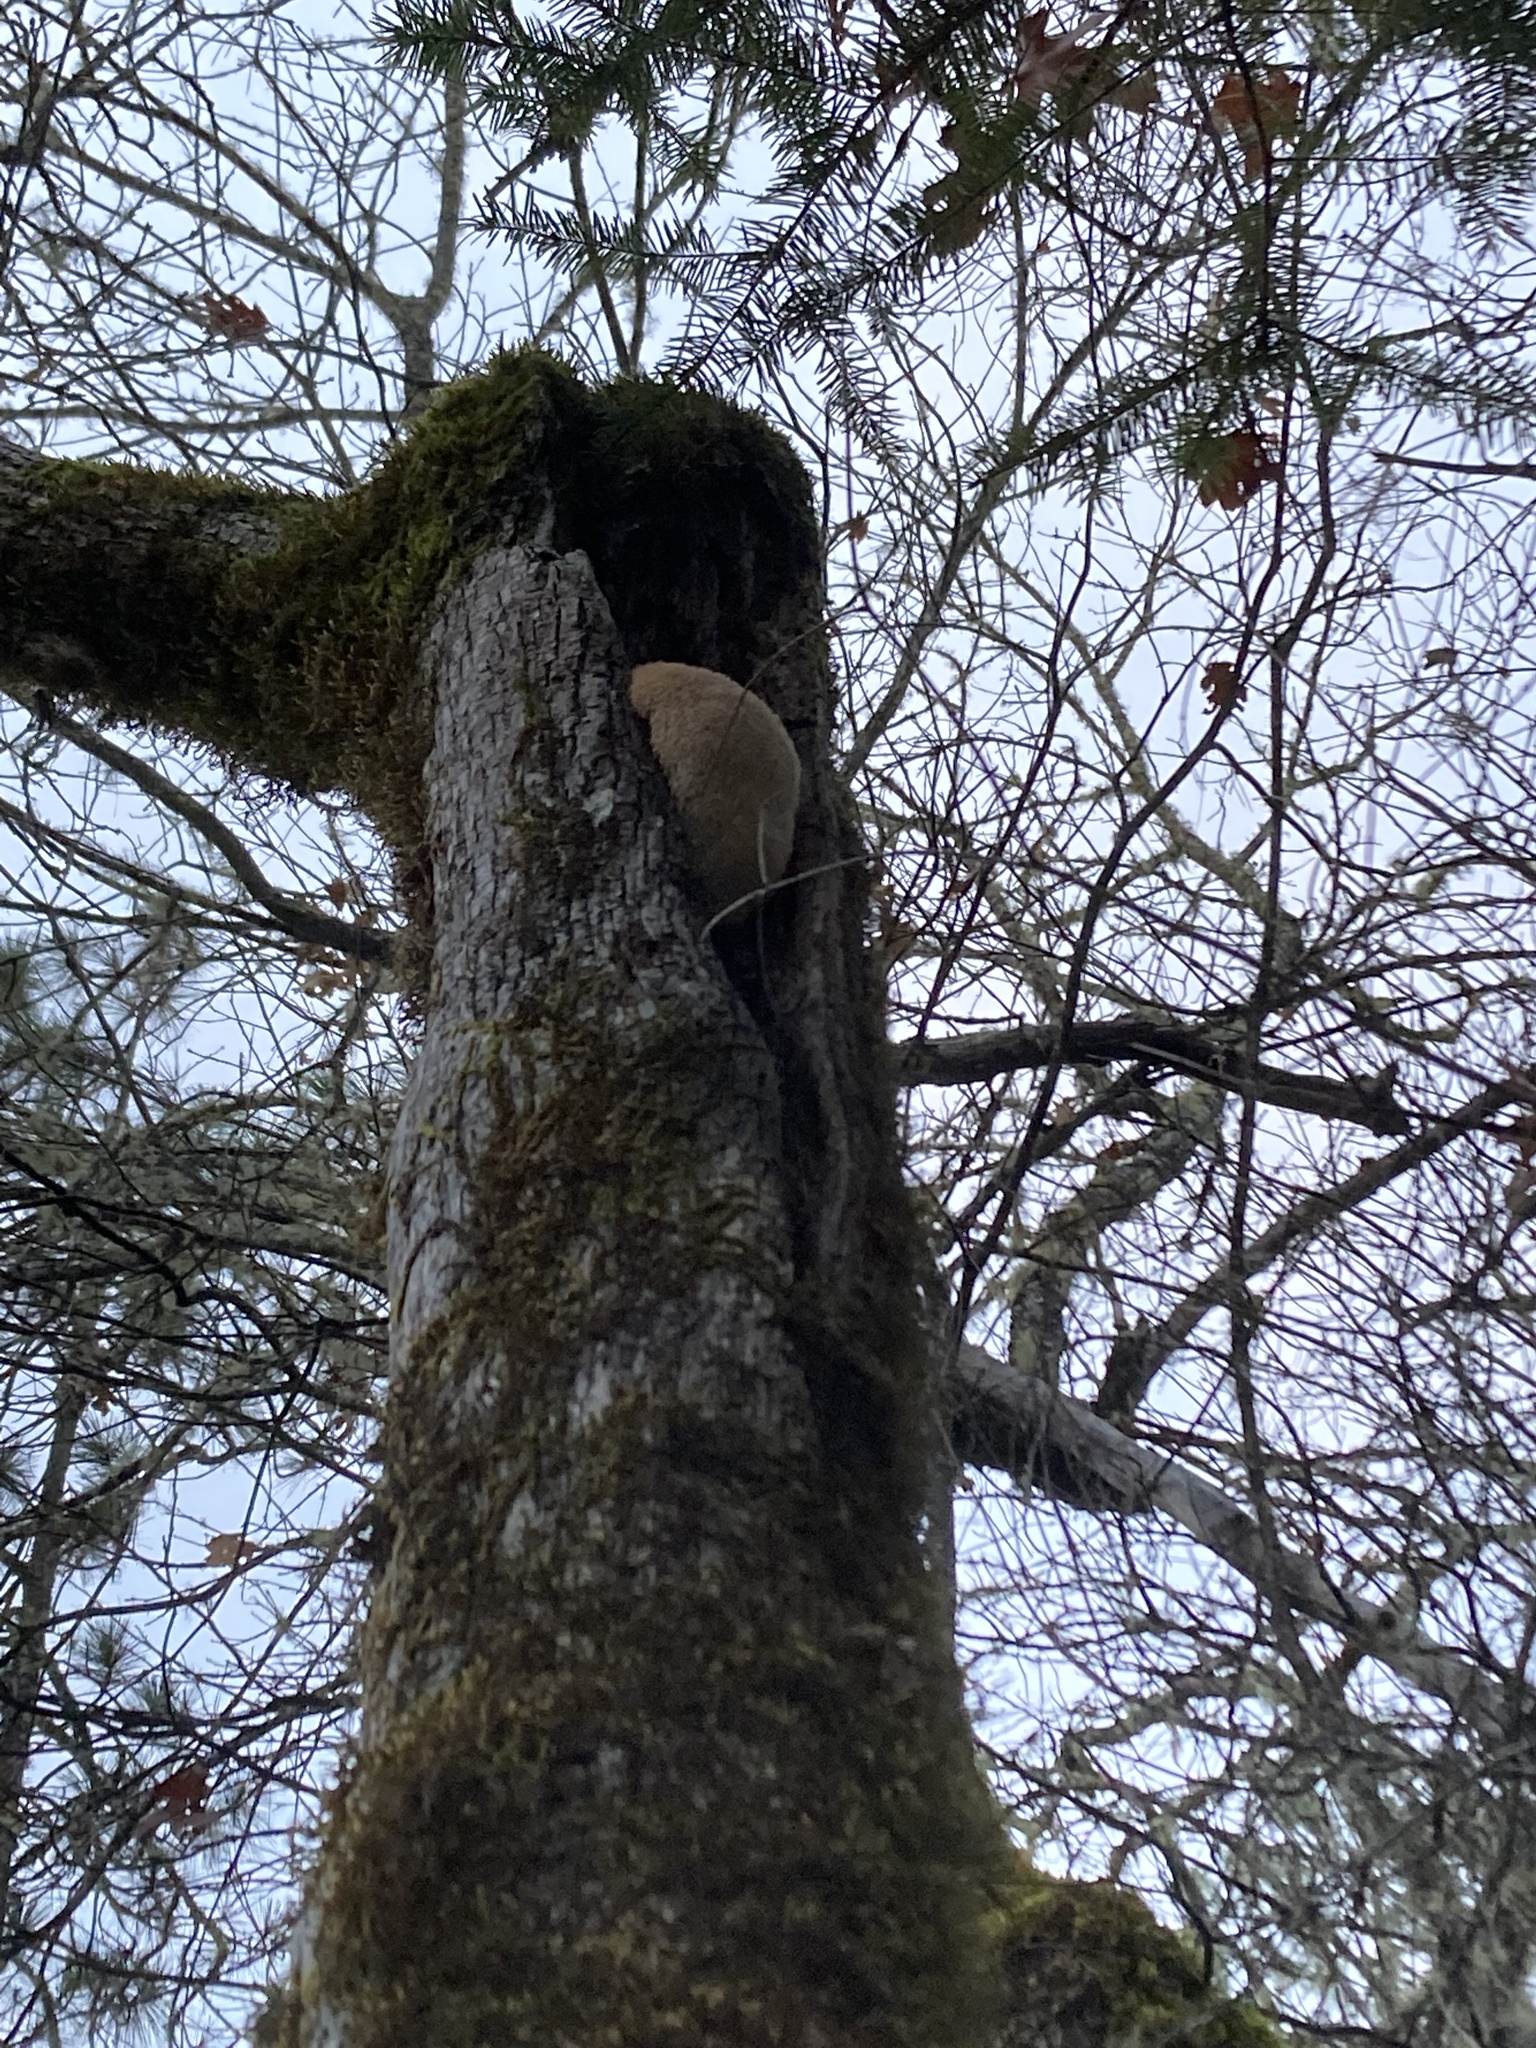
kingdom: Fungi
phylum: Basidiomycota
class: Agaricomycetes
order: Russulales
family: Hericiaceae
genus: Hericium
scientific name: Hericium erinaceus
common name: Bearded tooth
